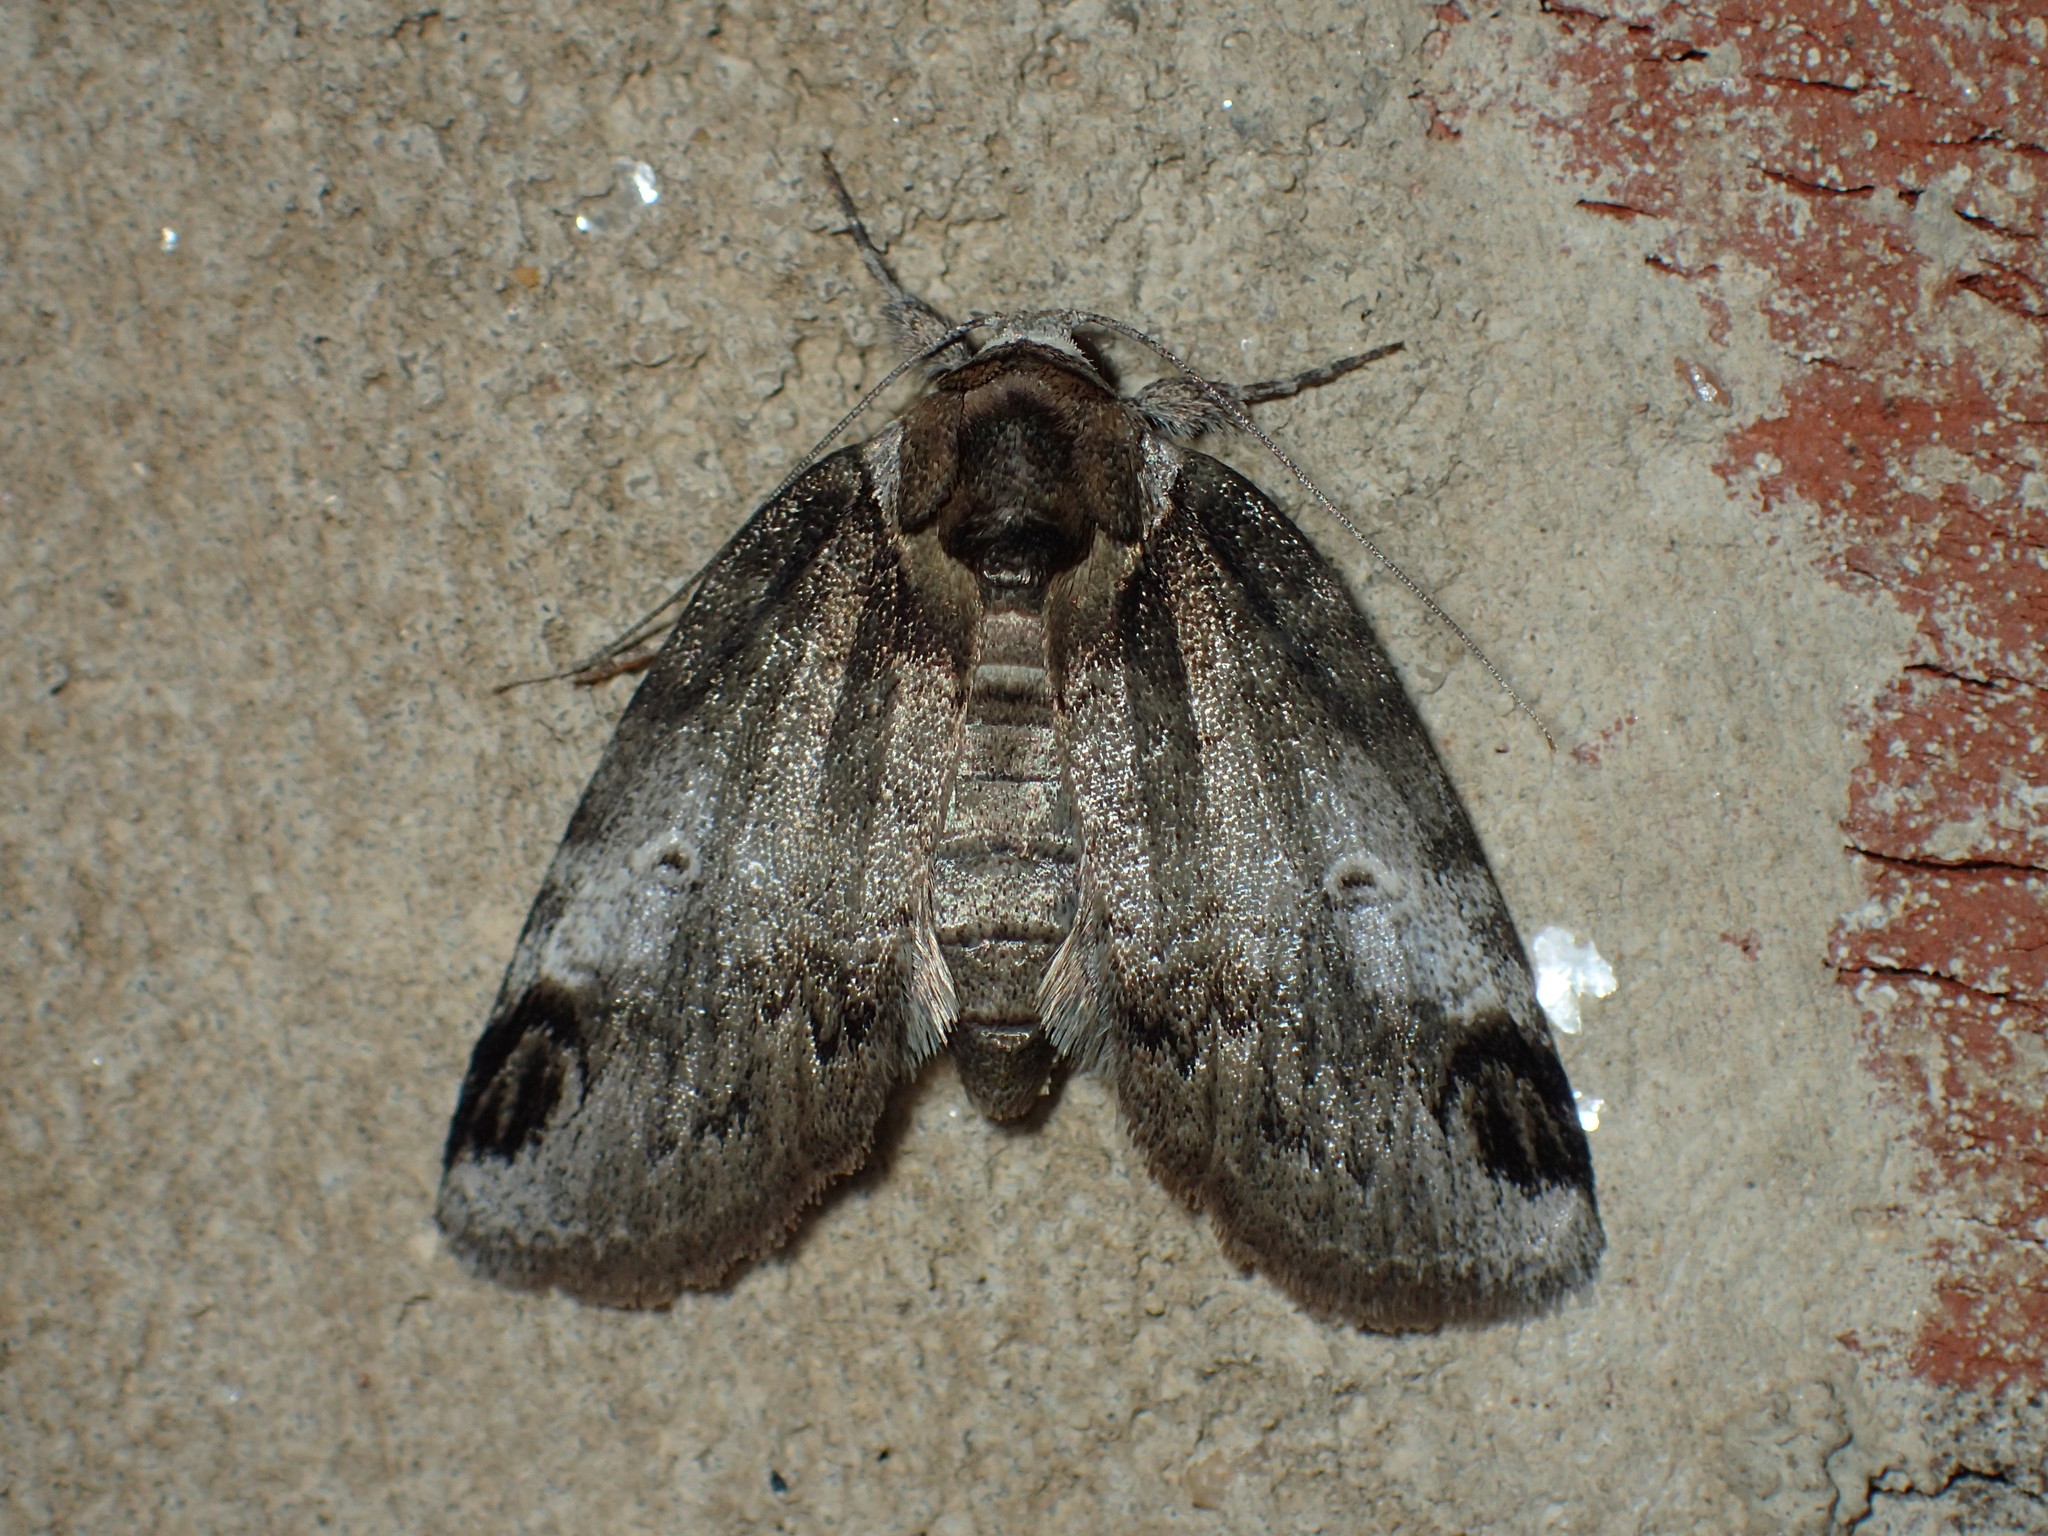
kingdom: Animalia
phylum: Arthropoda
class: Insecta
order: Lepidoptera
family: Nolidae
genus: Baileya
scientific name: Baileya acadiana
